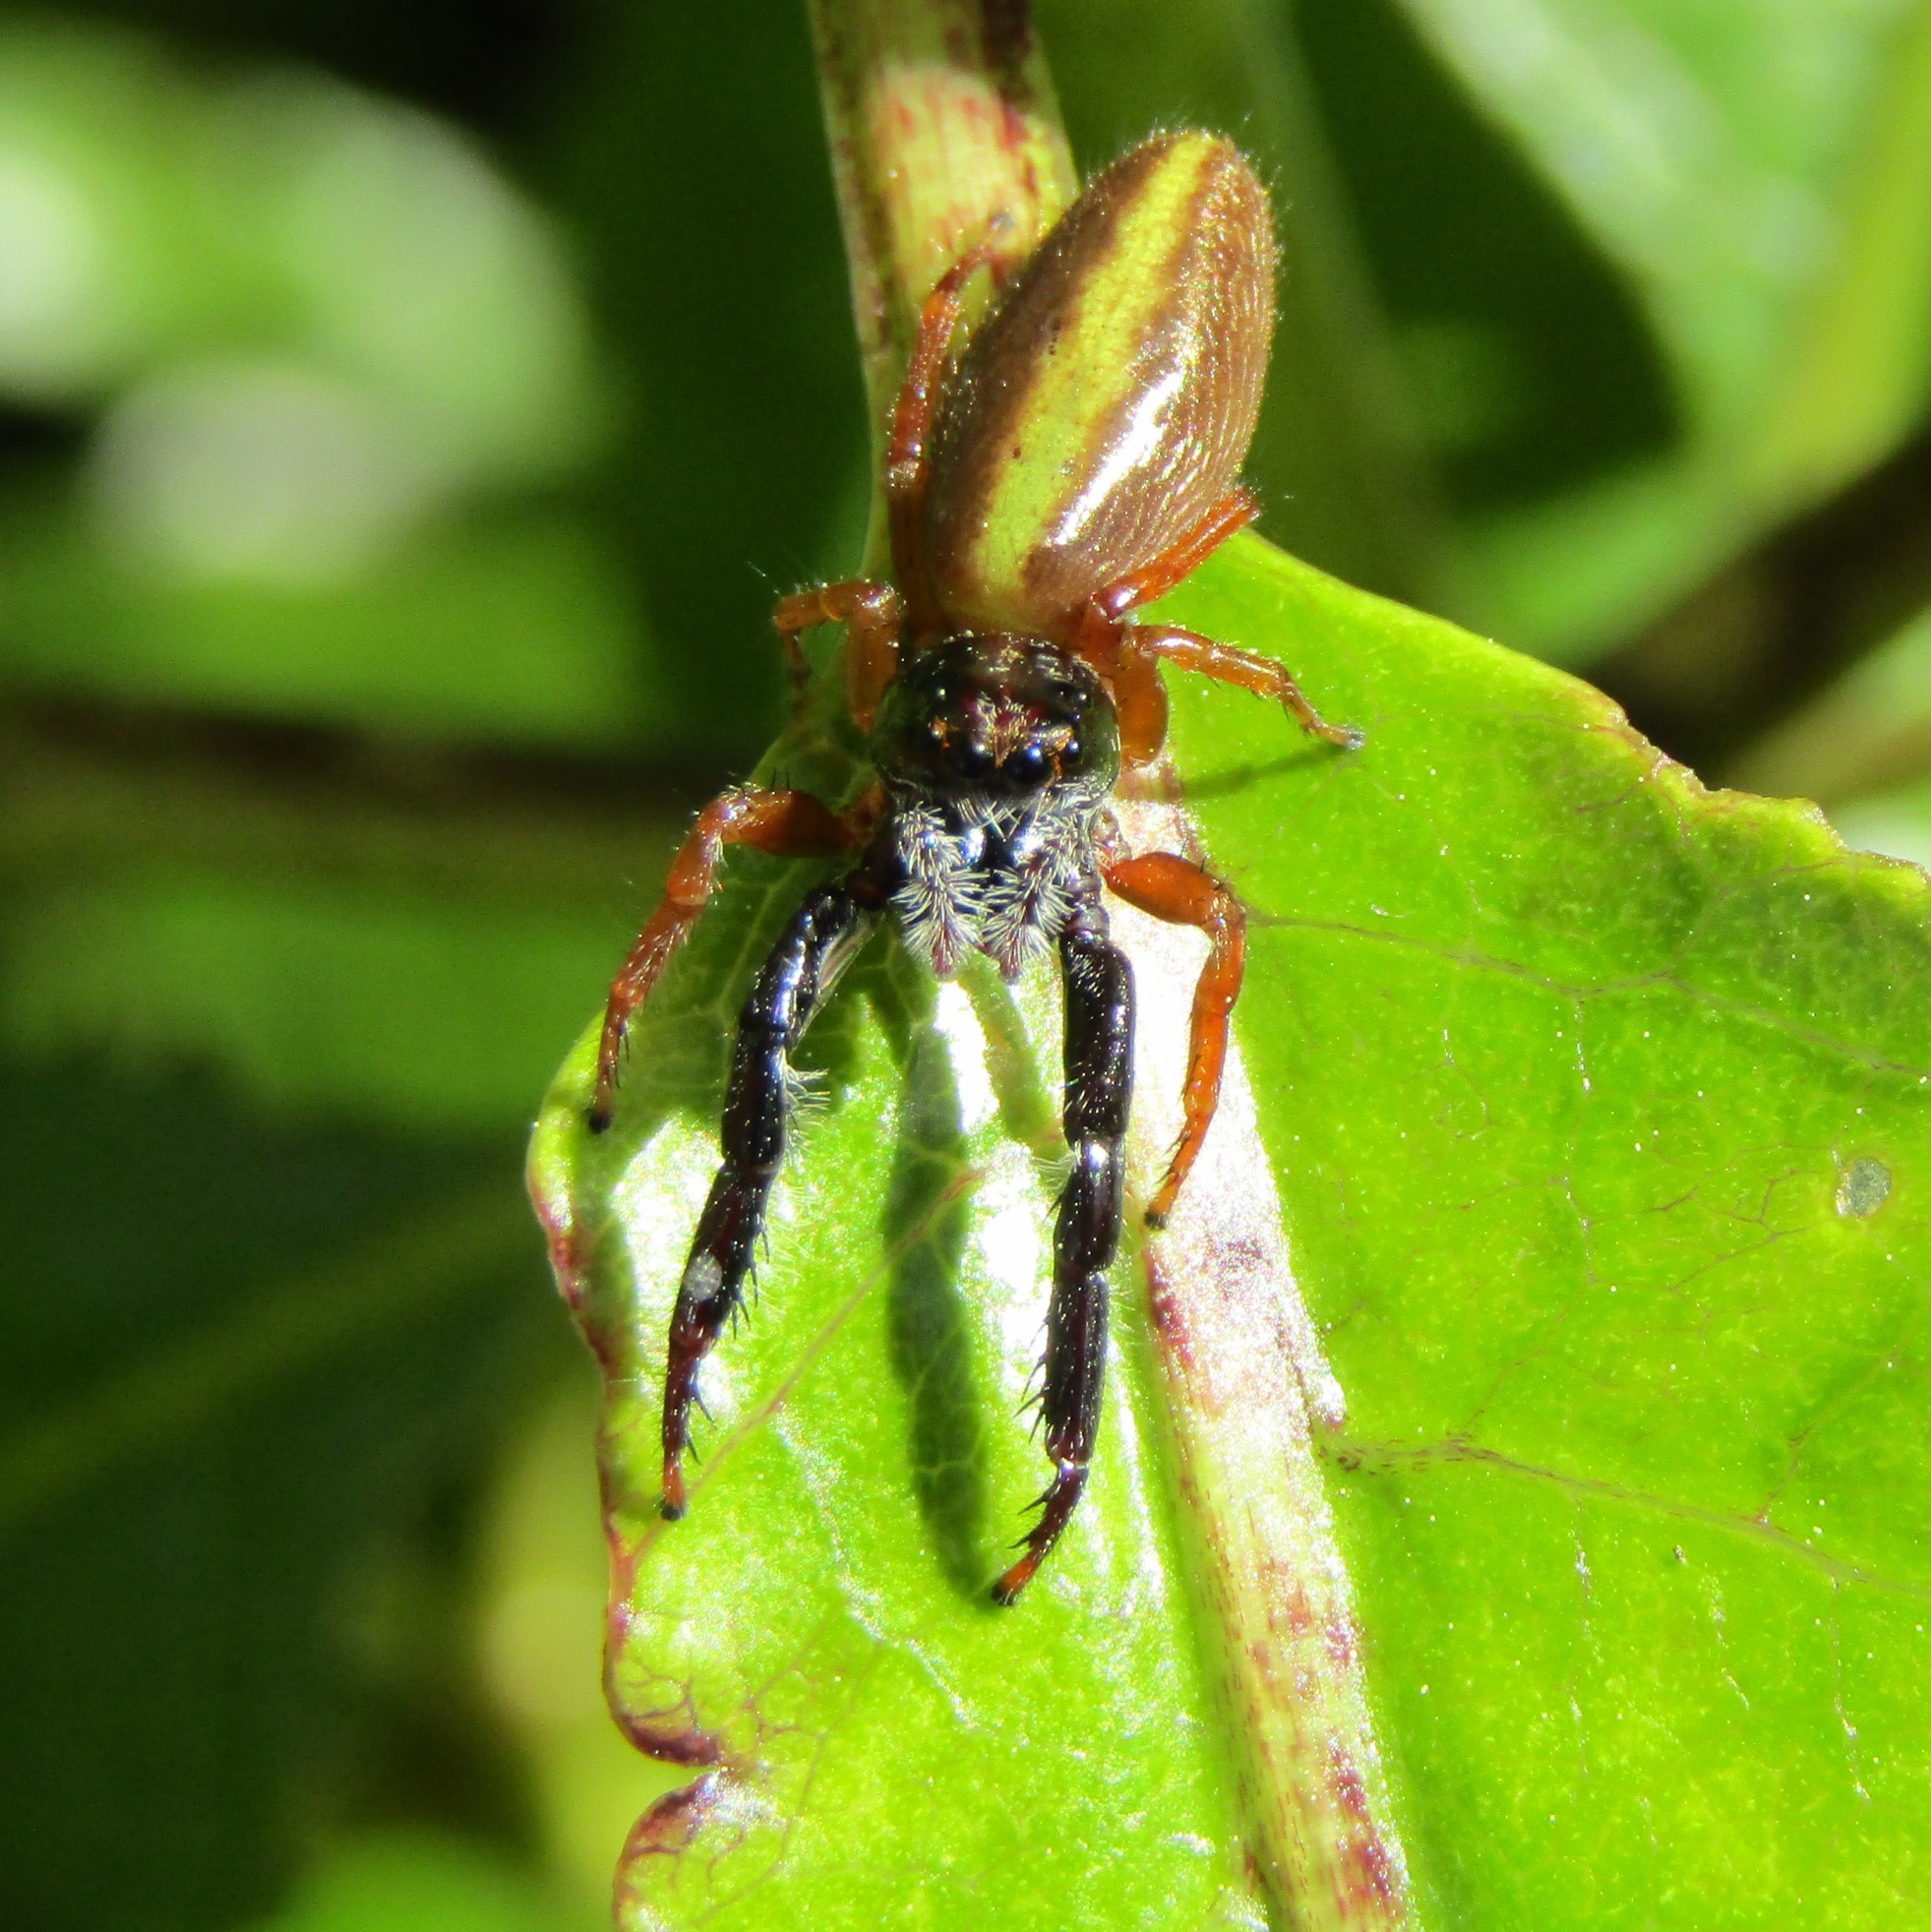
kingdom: Animalia
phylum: Arthropoda
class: Arachnida
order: Araneae
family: Salticidae
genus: Trite
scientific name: Trite planiceps
